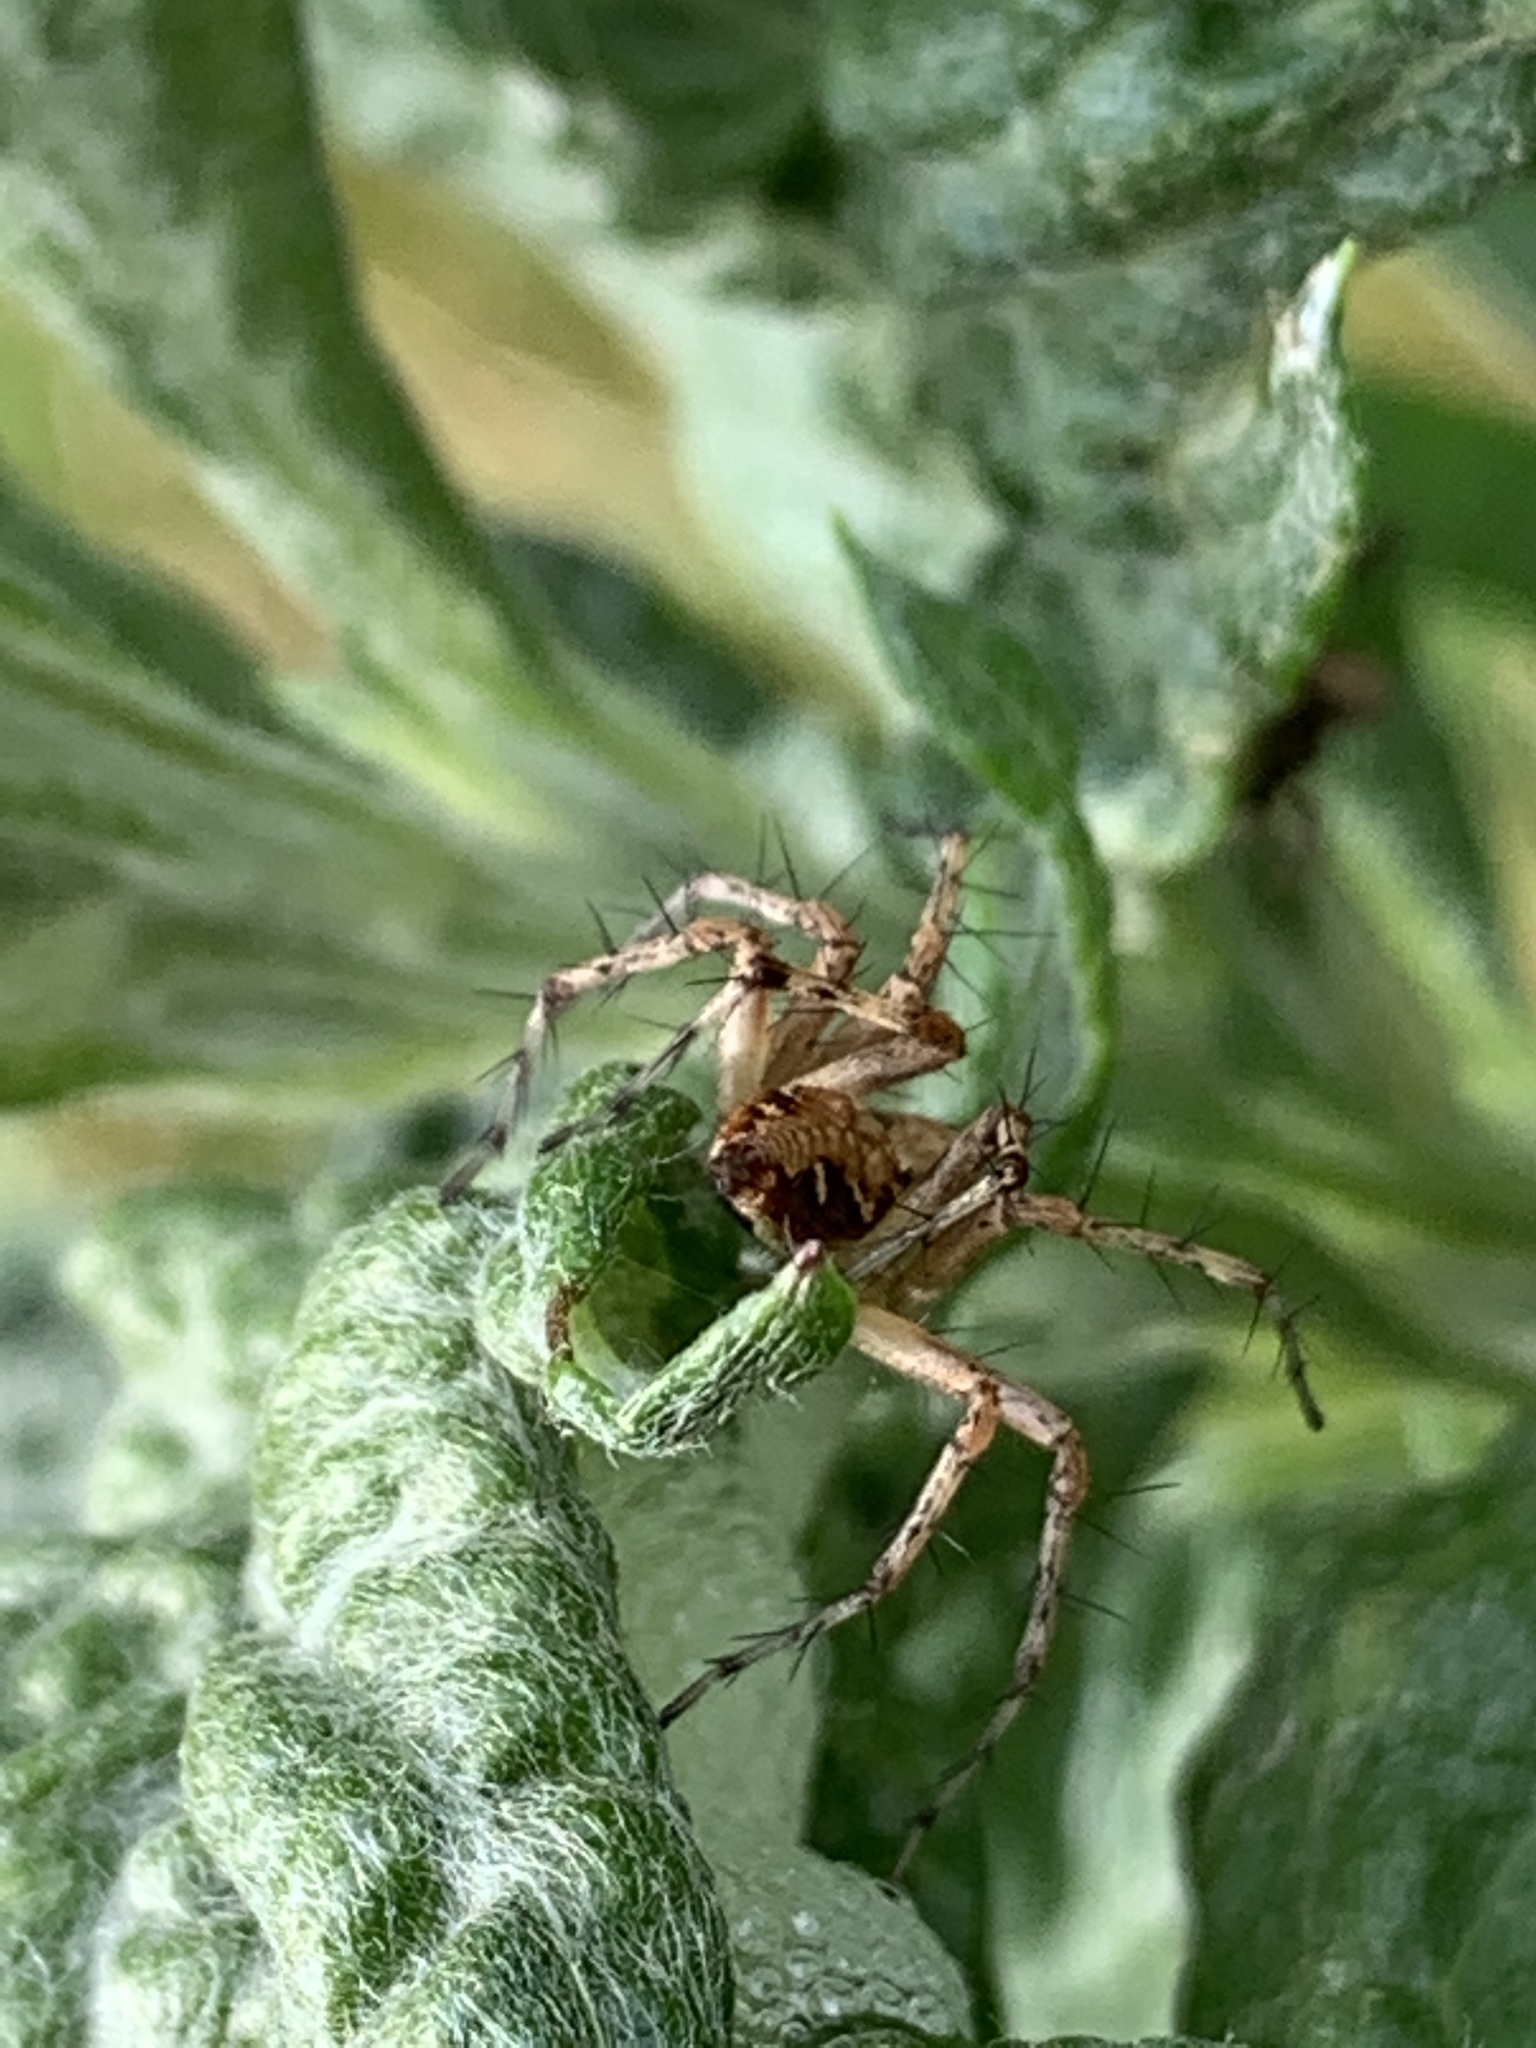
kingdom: Animalia
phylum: Arthropoda
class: Arachnida
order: Araneae
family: Oxyopidae
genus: Oxyopes
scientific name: Oxyopes scalaris
